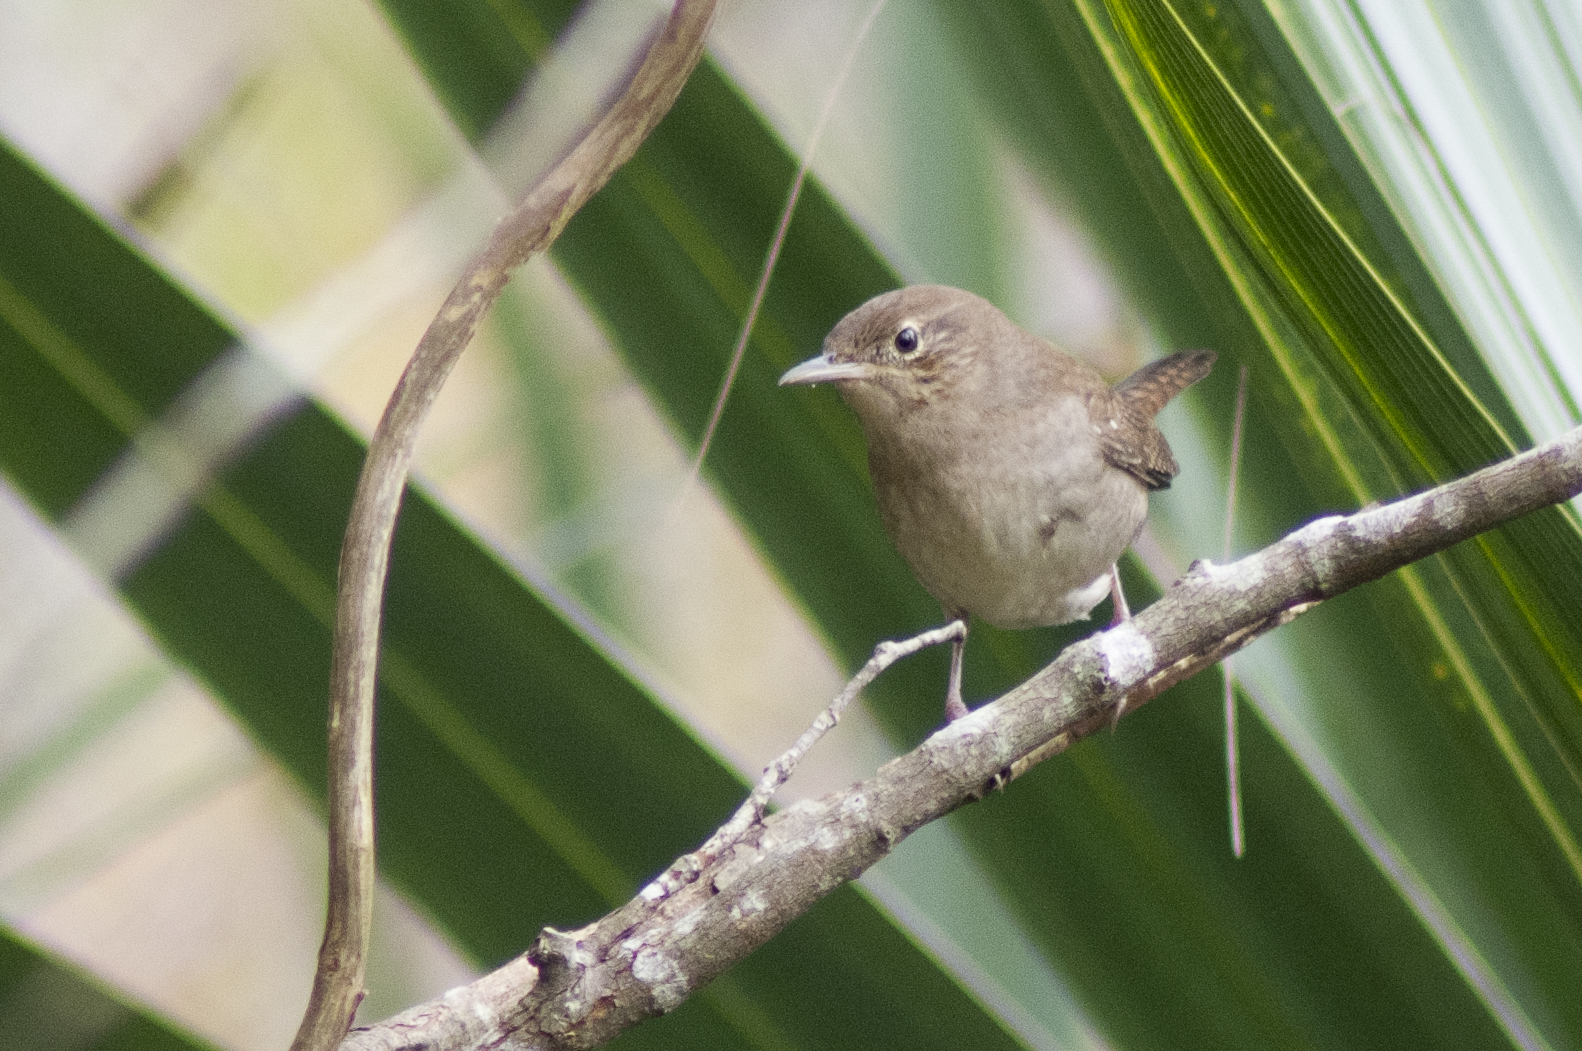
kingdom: Animalia
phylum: Chordata
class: Aves
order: Passeriformes
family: Troglodytidae
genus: Troglodytes
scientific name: Troglodytes aedon
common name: House wren
